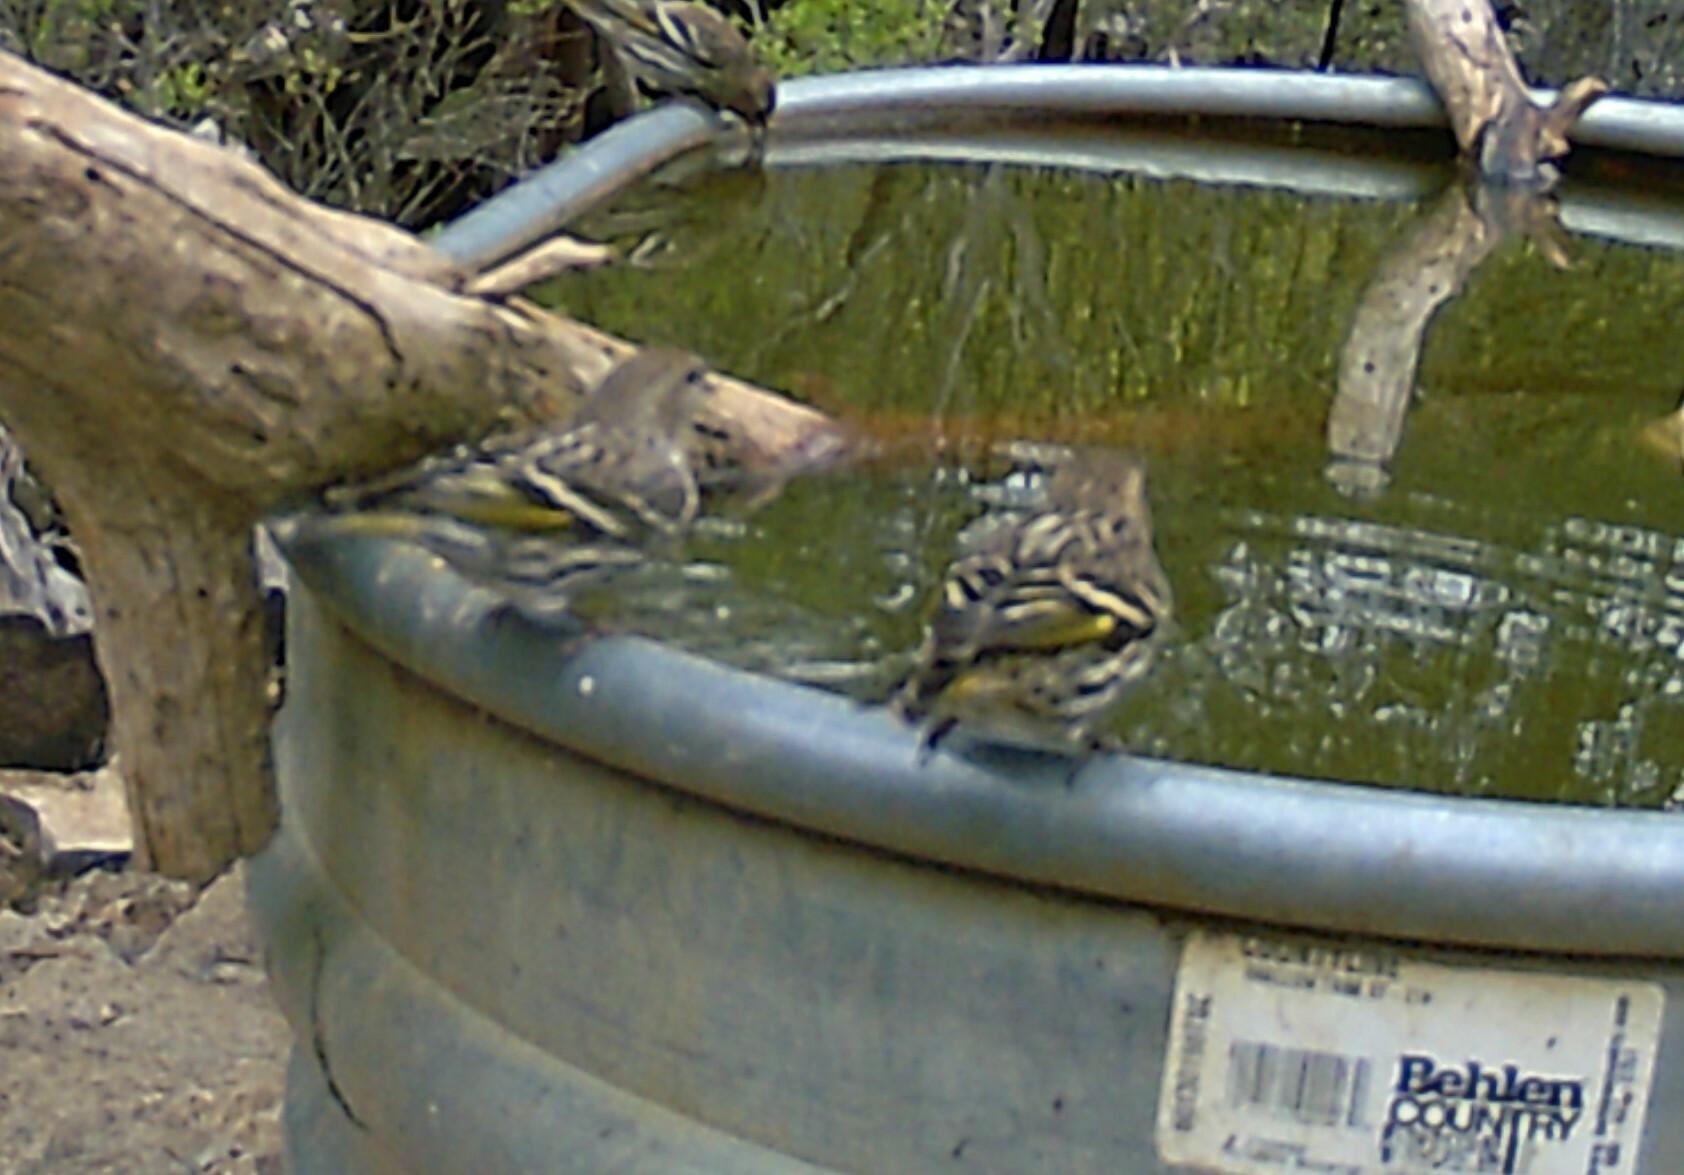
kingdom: Animalia
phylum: Chordata
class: Aves
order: Passeriformes
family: Fringillidae
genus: Spinus
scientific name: Spinus pinus
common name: Pine siskin
